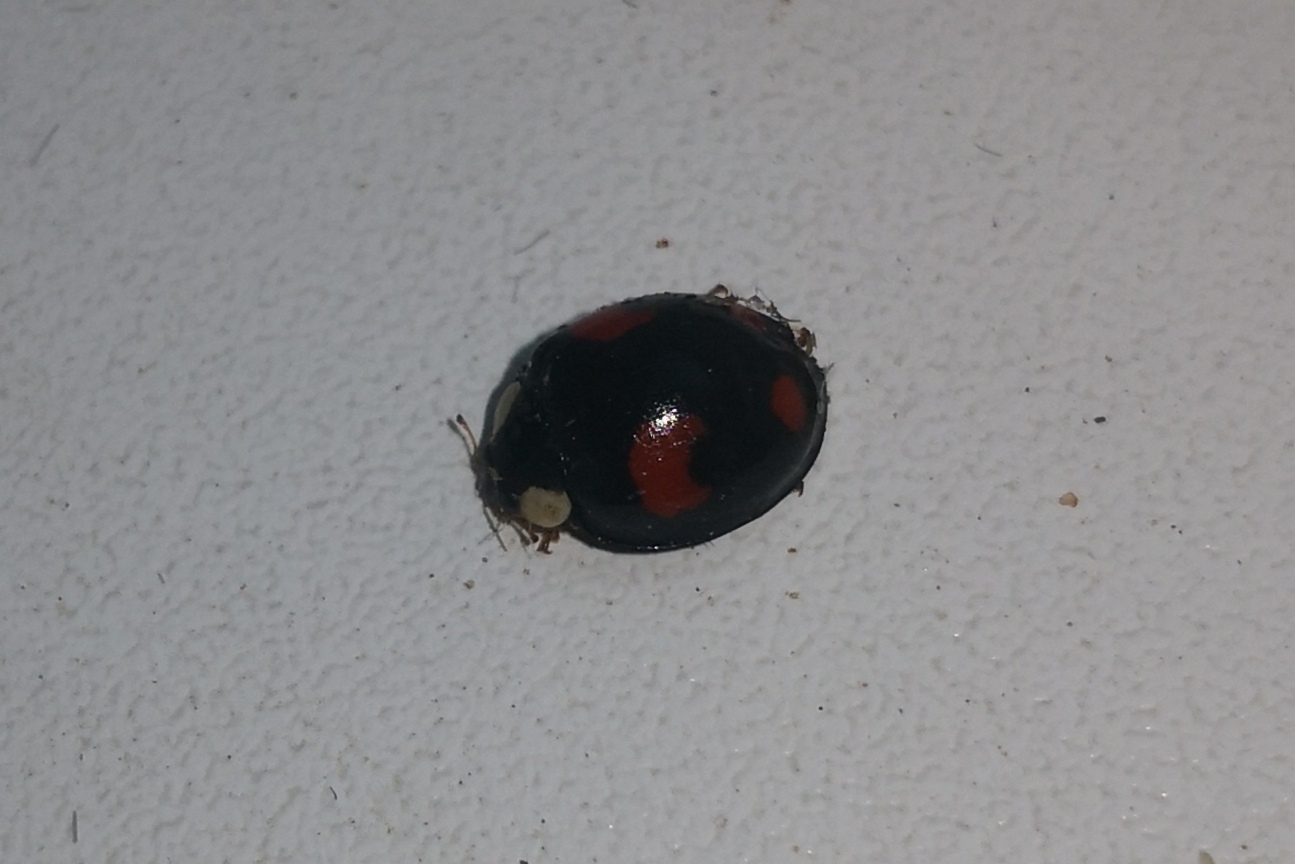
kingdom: Animalia
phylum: Arthropoda
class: Insecta
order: Coleoptera
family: Coccinellidae
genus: Harmonia
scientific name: Harmonia axyridis
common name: Harlequin ladybird
